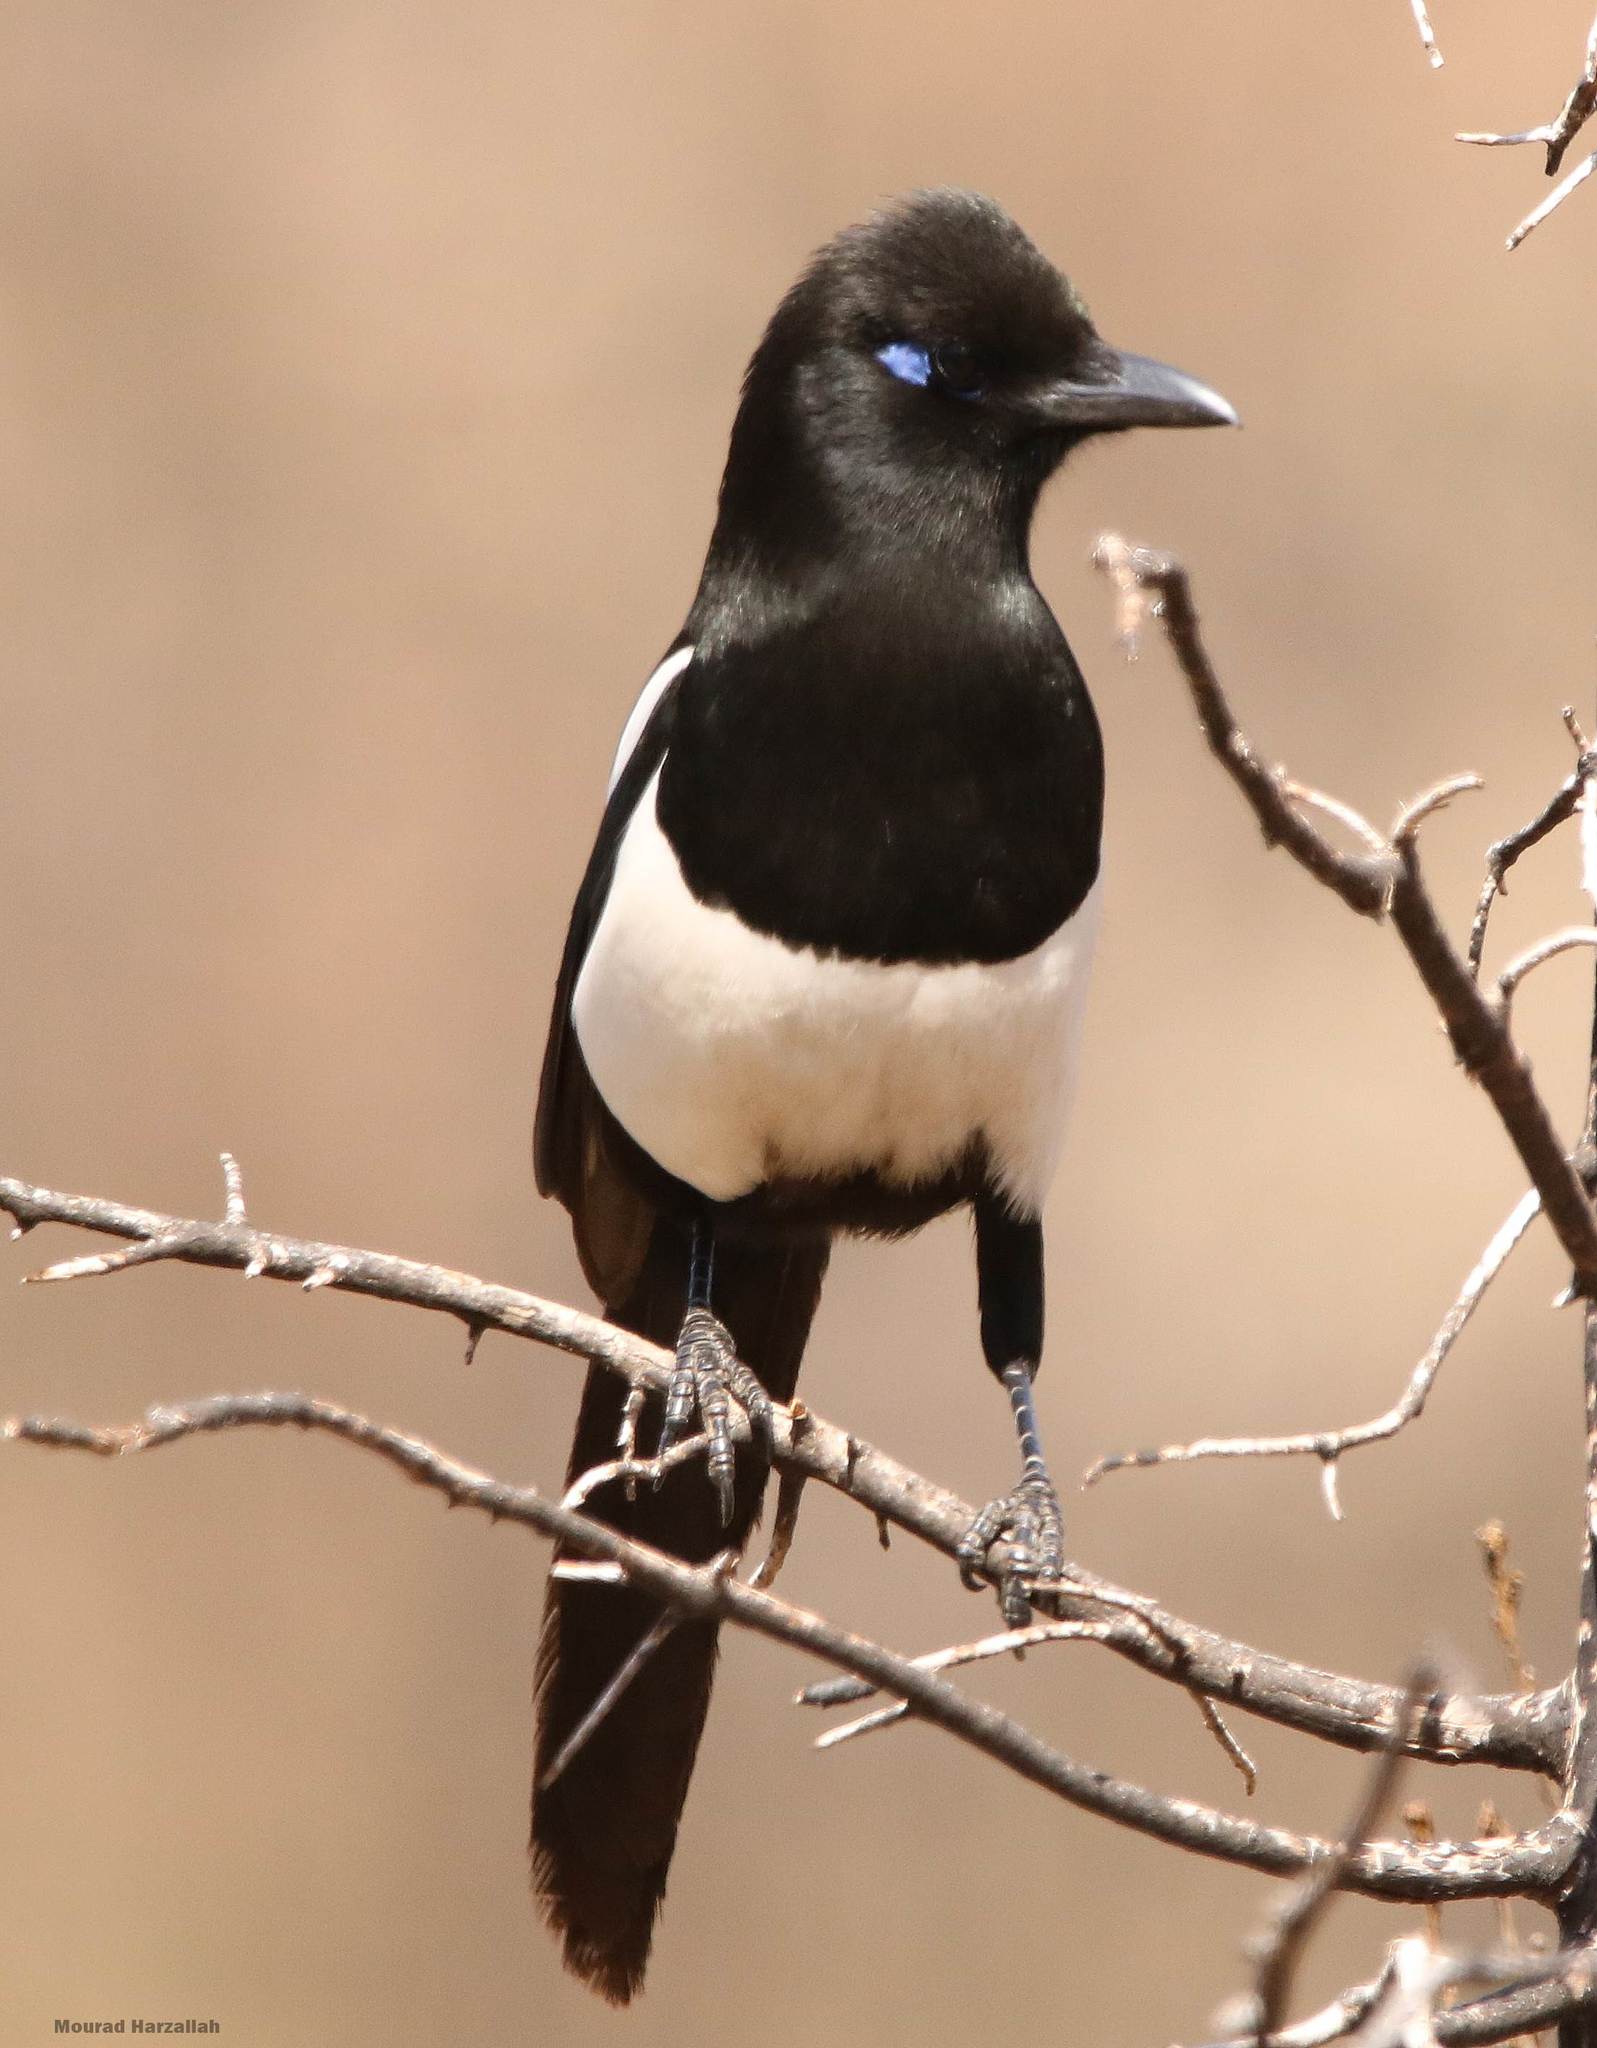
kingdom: Animalia
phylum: Chordata
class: Aves
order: Passeriformes
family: Corvidae
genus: Pica
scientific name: Pica mauritanica
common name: Maghreb magpie
